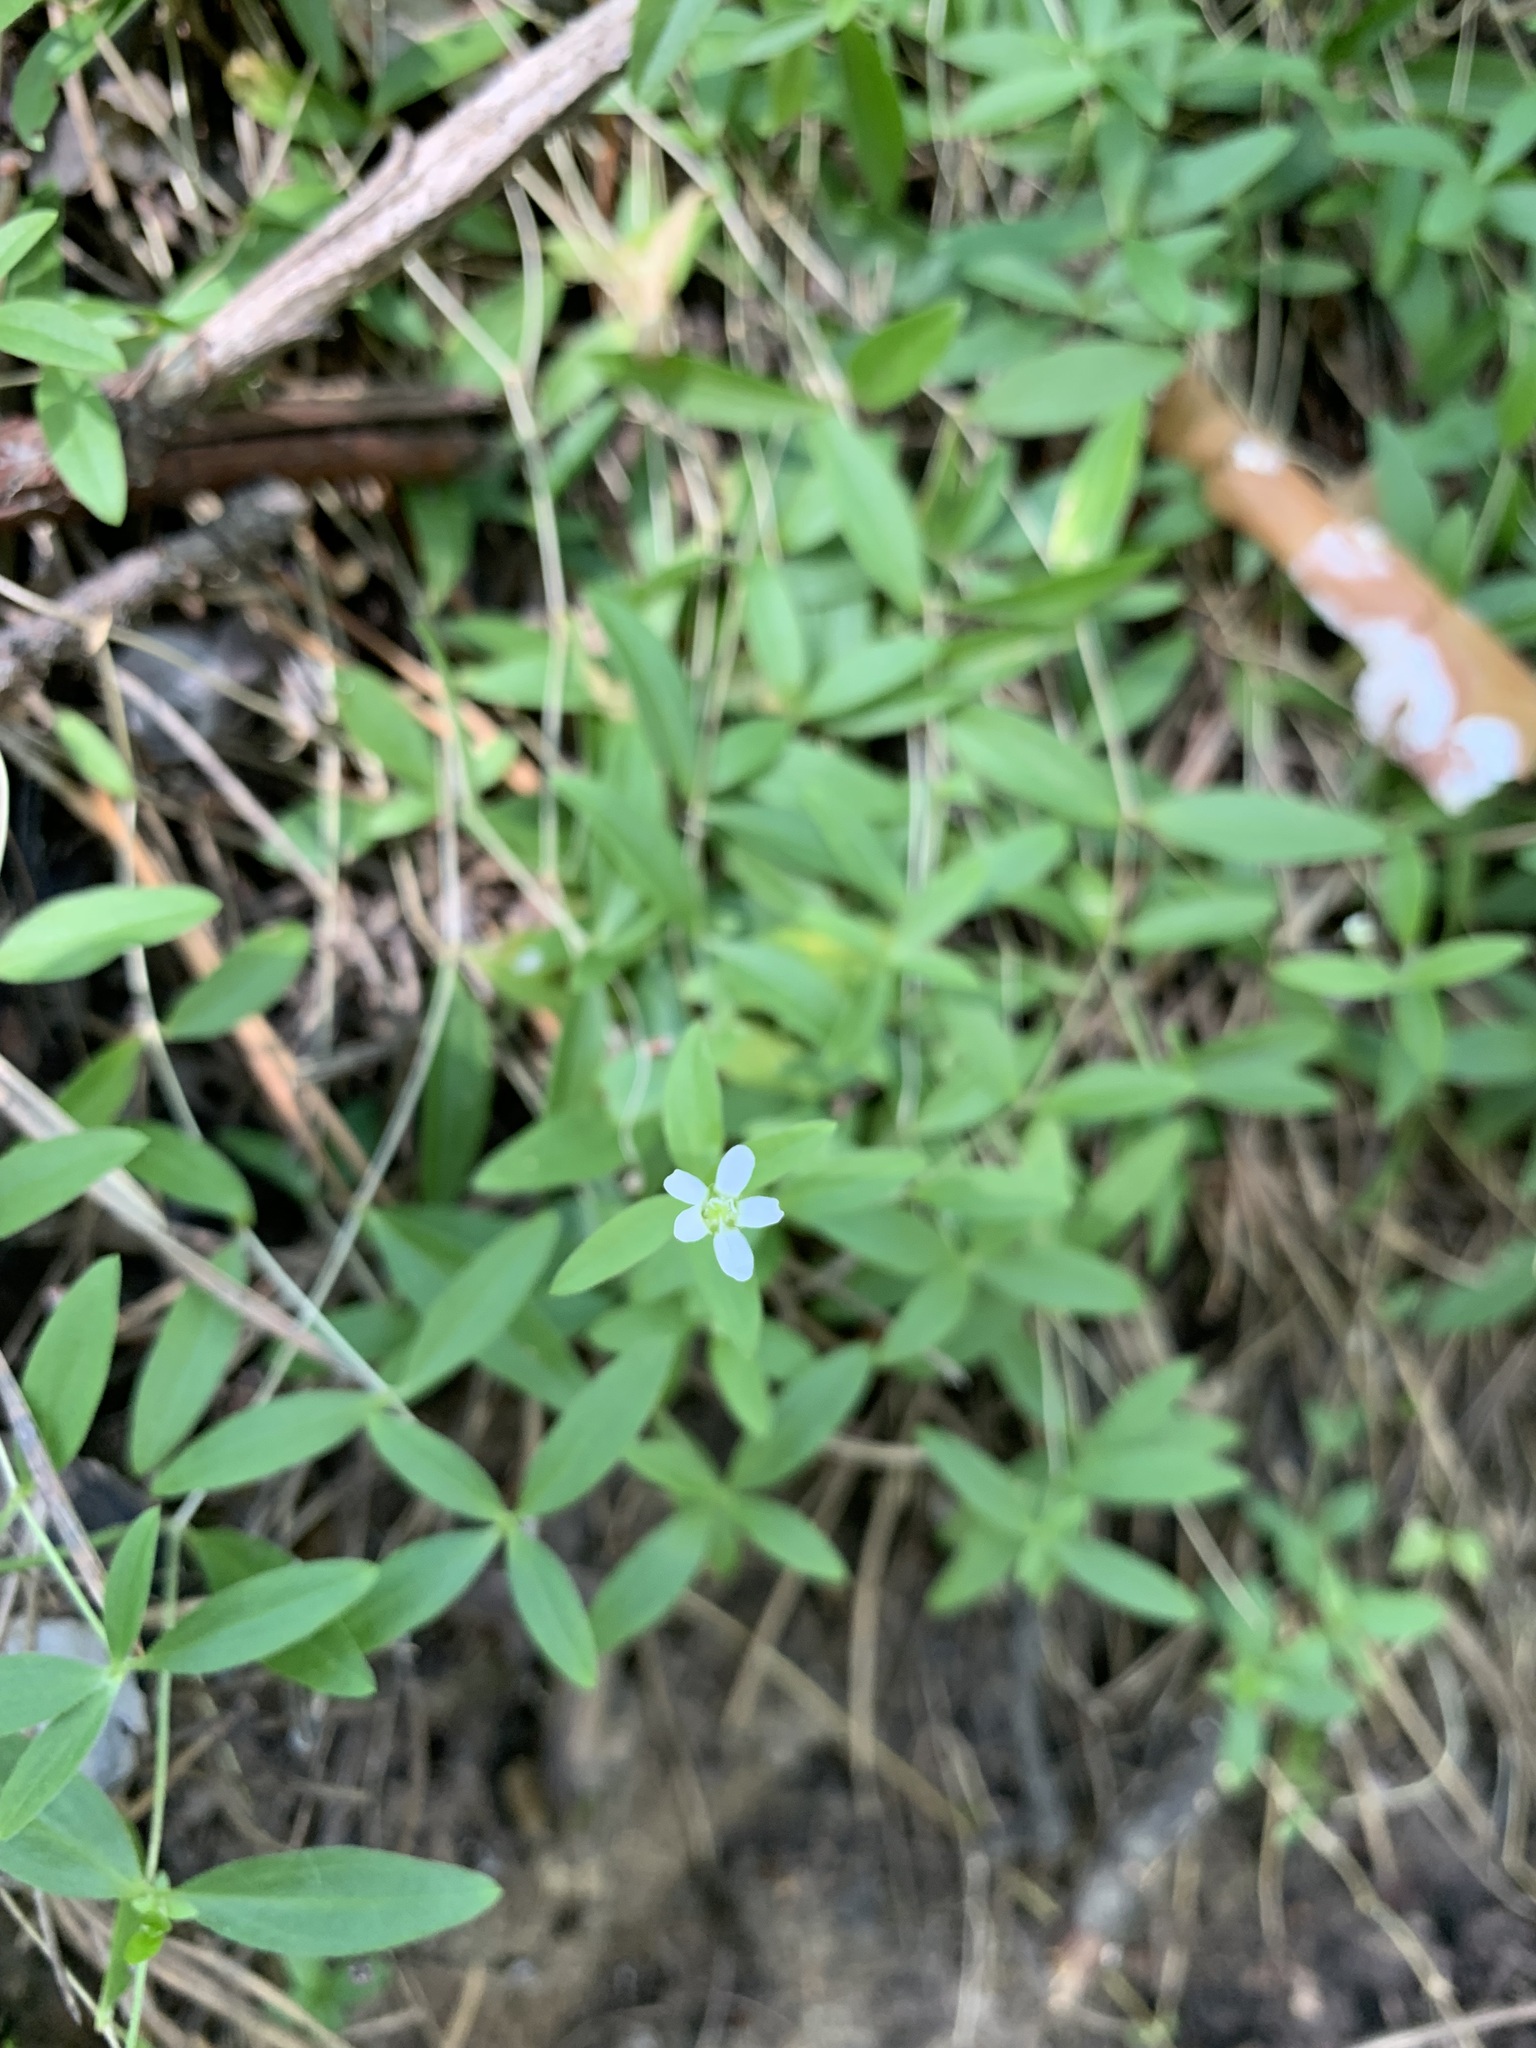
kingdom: Plantae
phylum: Tracheophyta
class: Magnoliopsida
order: Caryophyllales
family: Caryophyllaceae
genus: Moehringia
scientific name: Moehringia lateriflora
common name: Blunt-leaved sandwort
